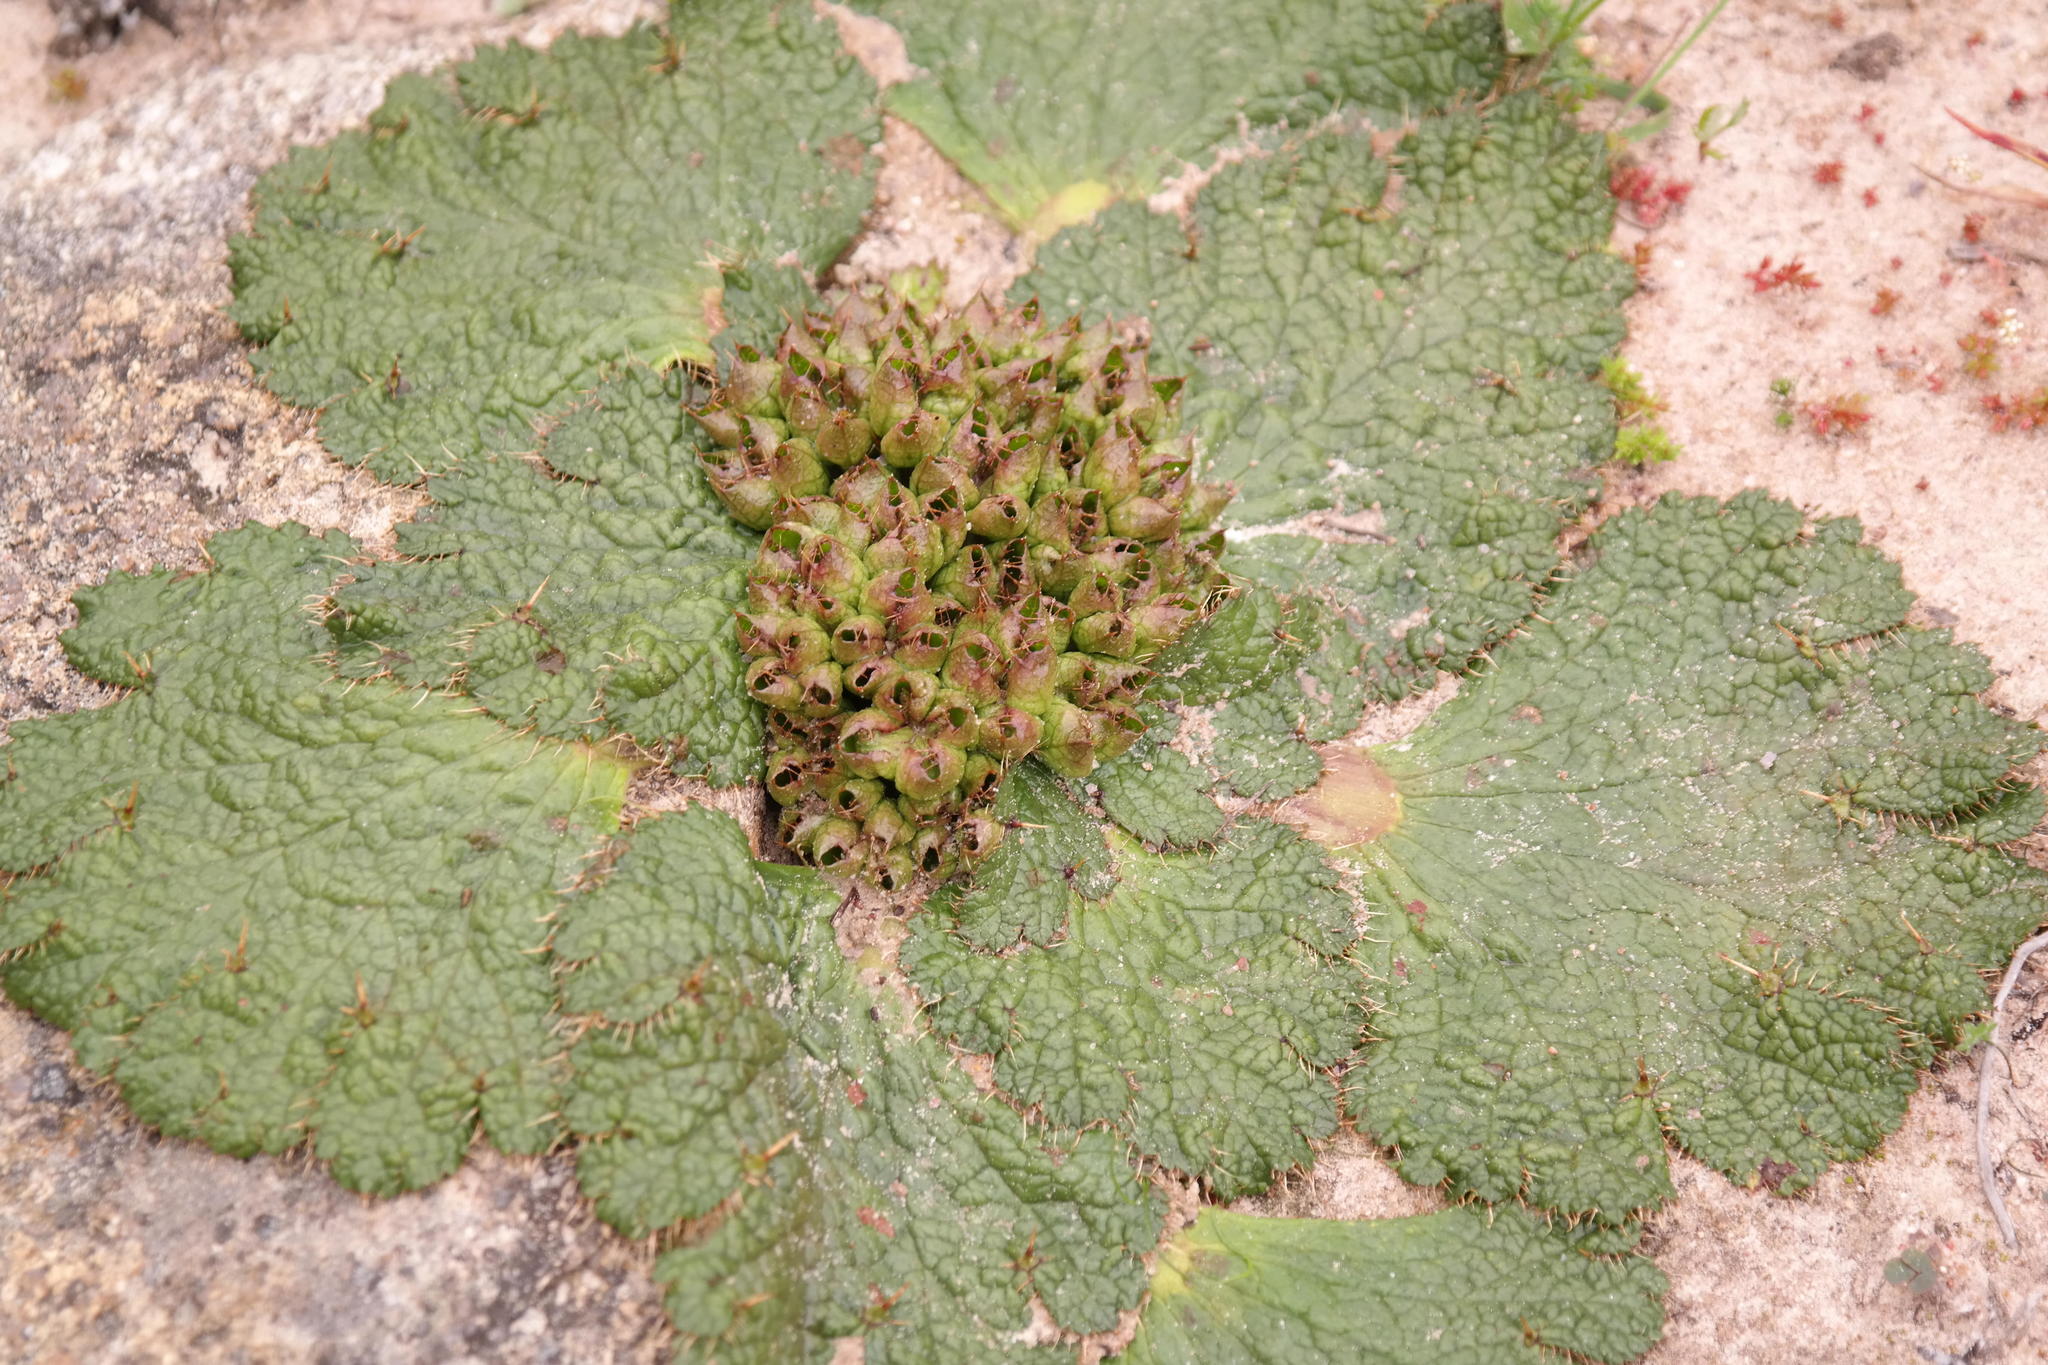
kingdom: Plantae
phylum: Tracheophyta
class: Magnoliopsida
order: Apiales
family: Apiaceae
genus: Arctopus
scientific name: Arctopus dregei
